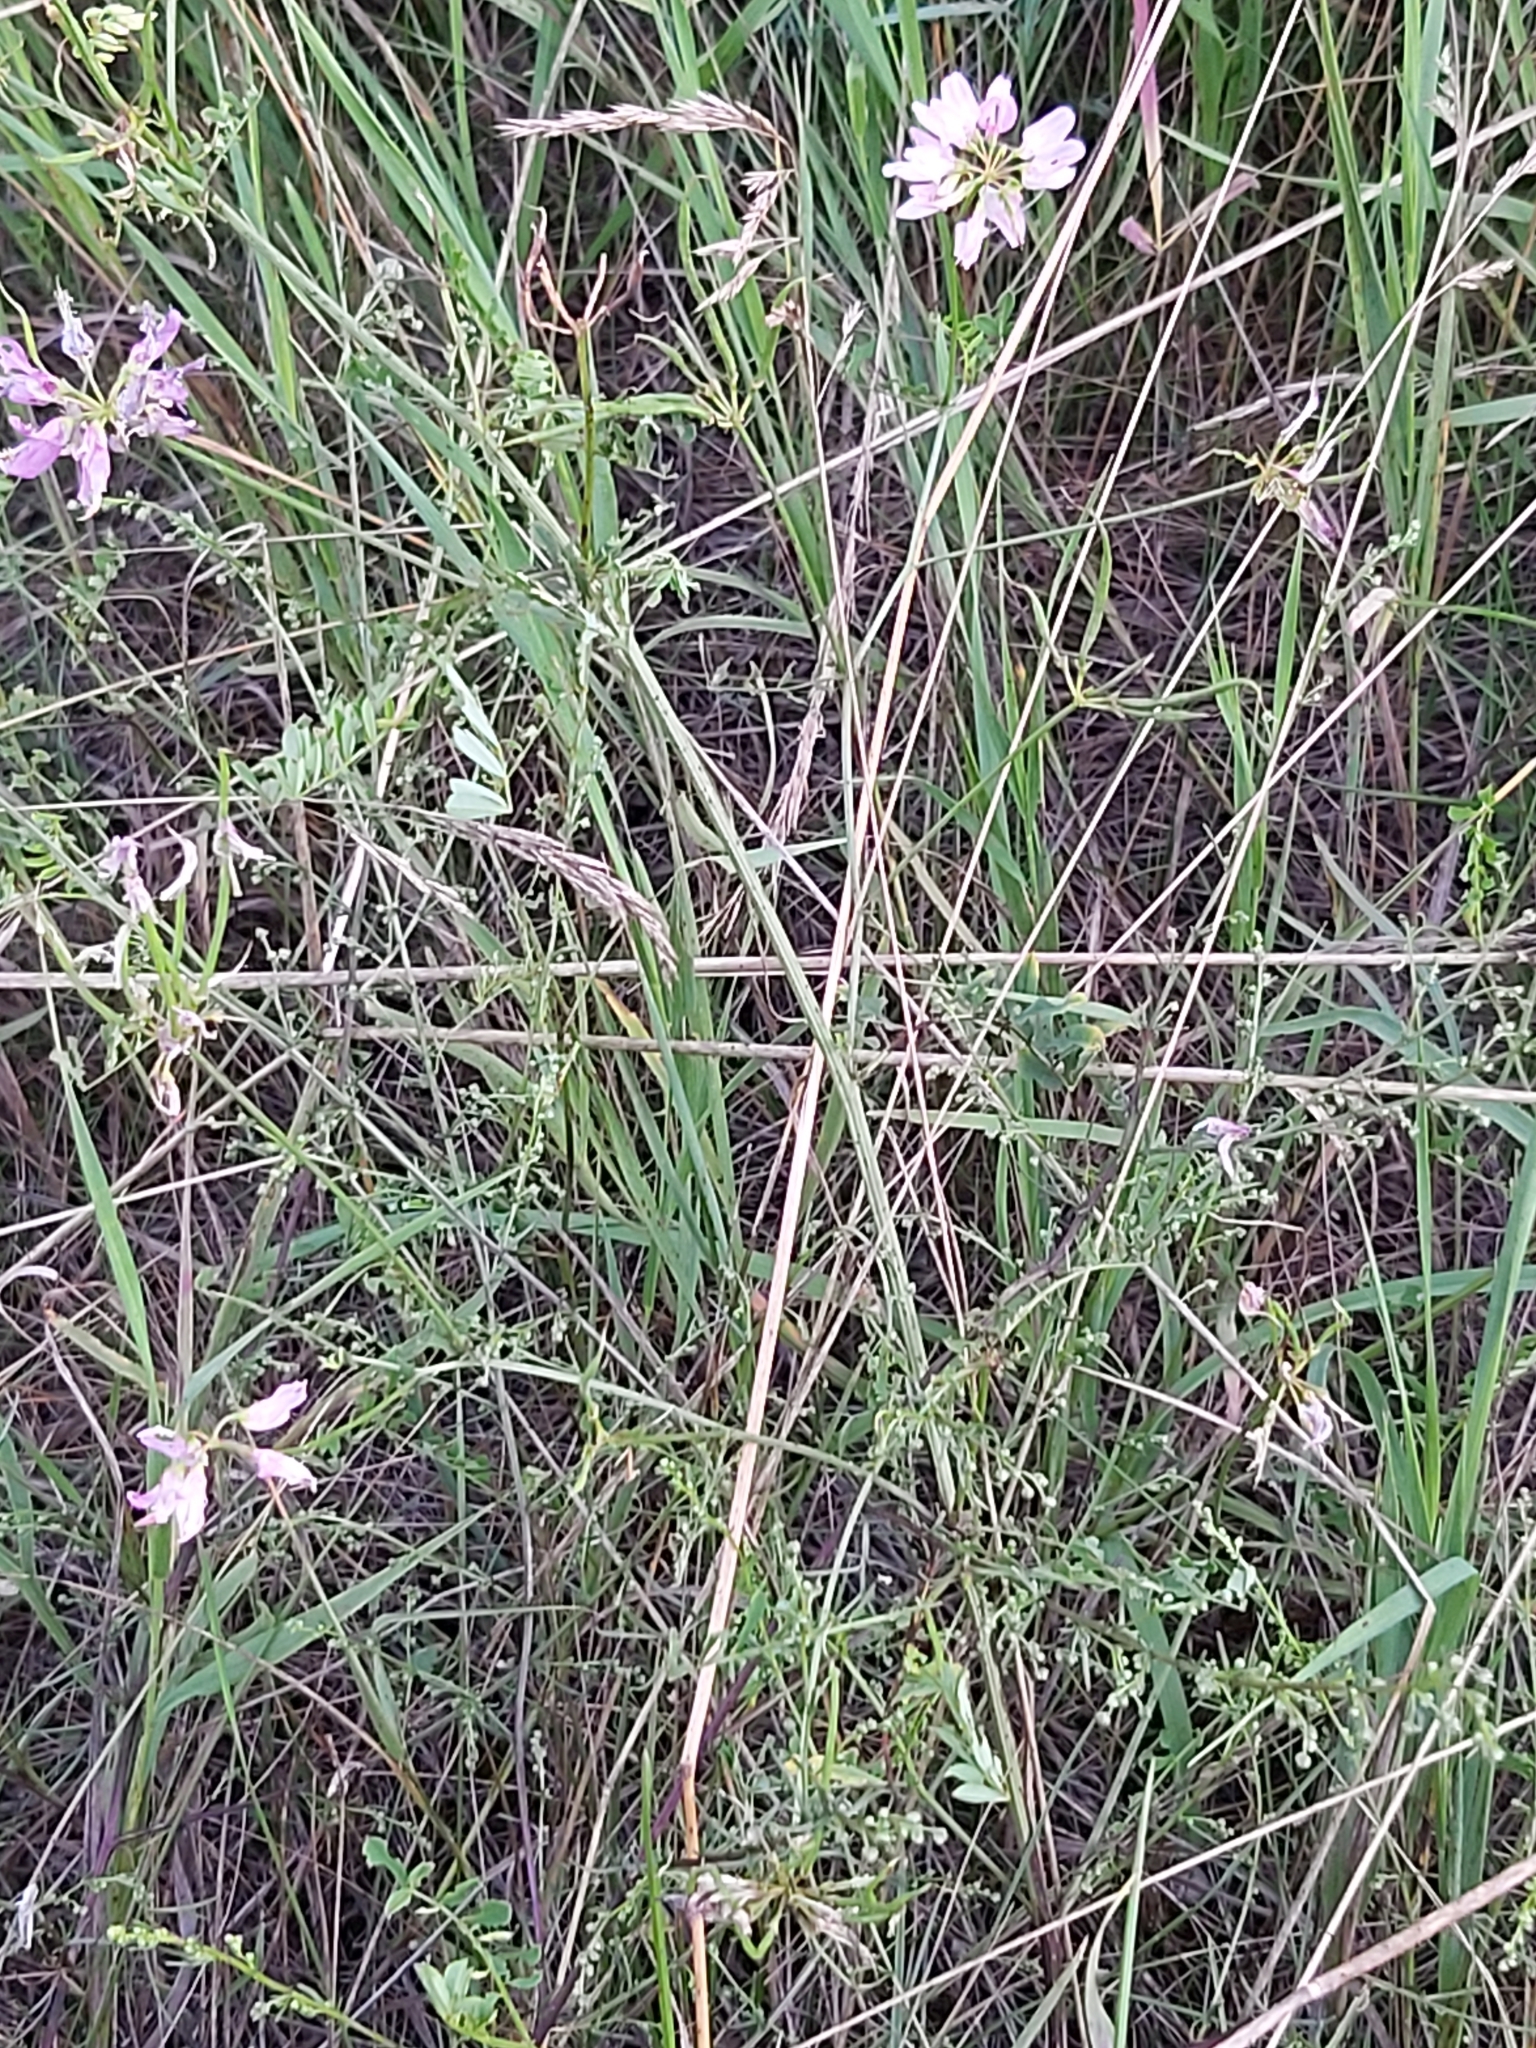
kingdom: Plantae
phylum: Tracheophyta
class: Magnoliopsida
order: Fabales
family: Fabaceae
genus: Coronilla
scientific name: Coronilla varia
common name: Crownvetch
